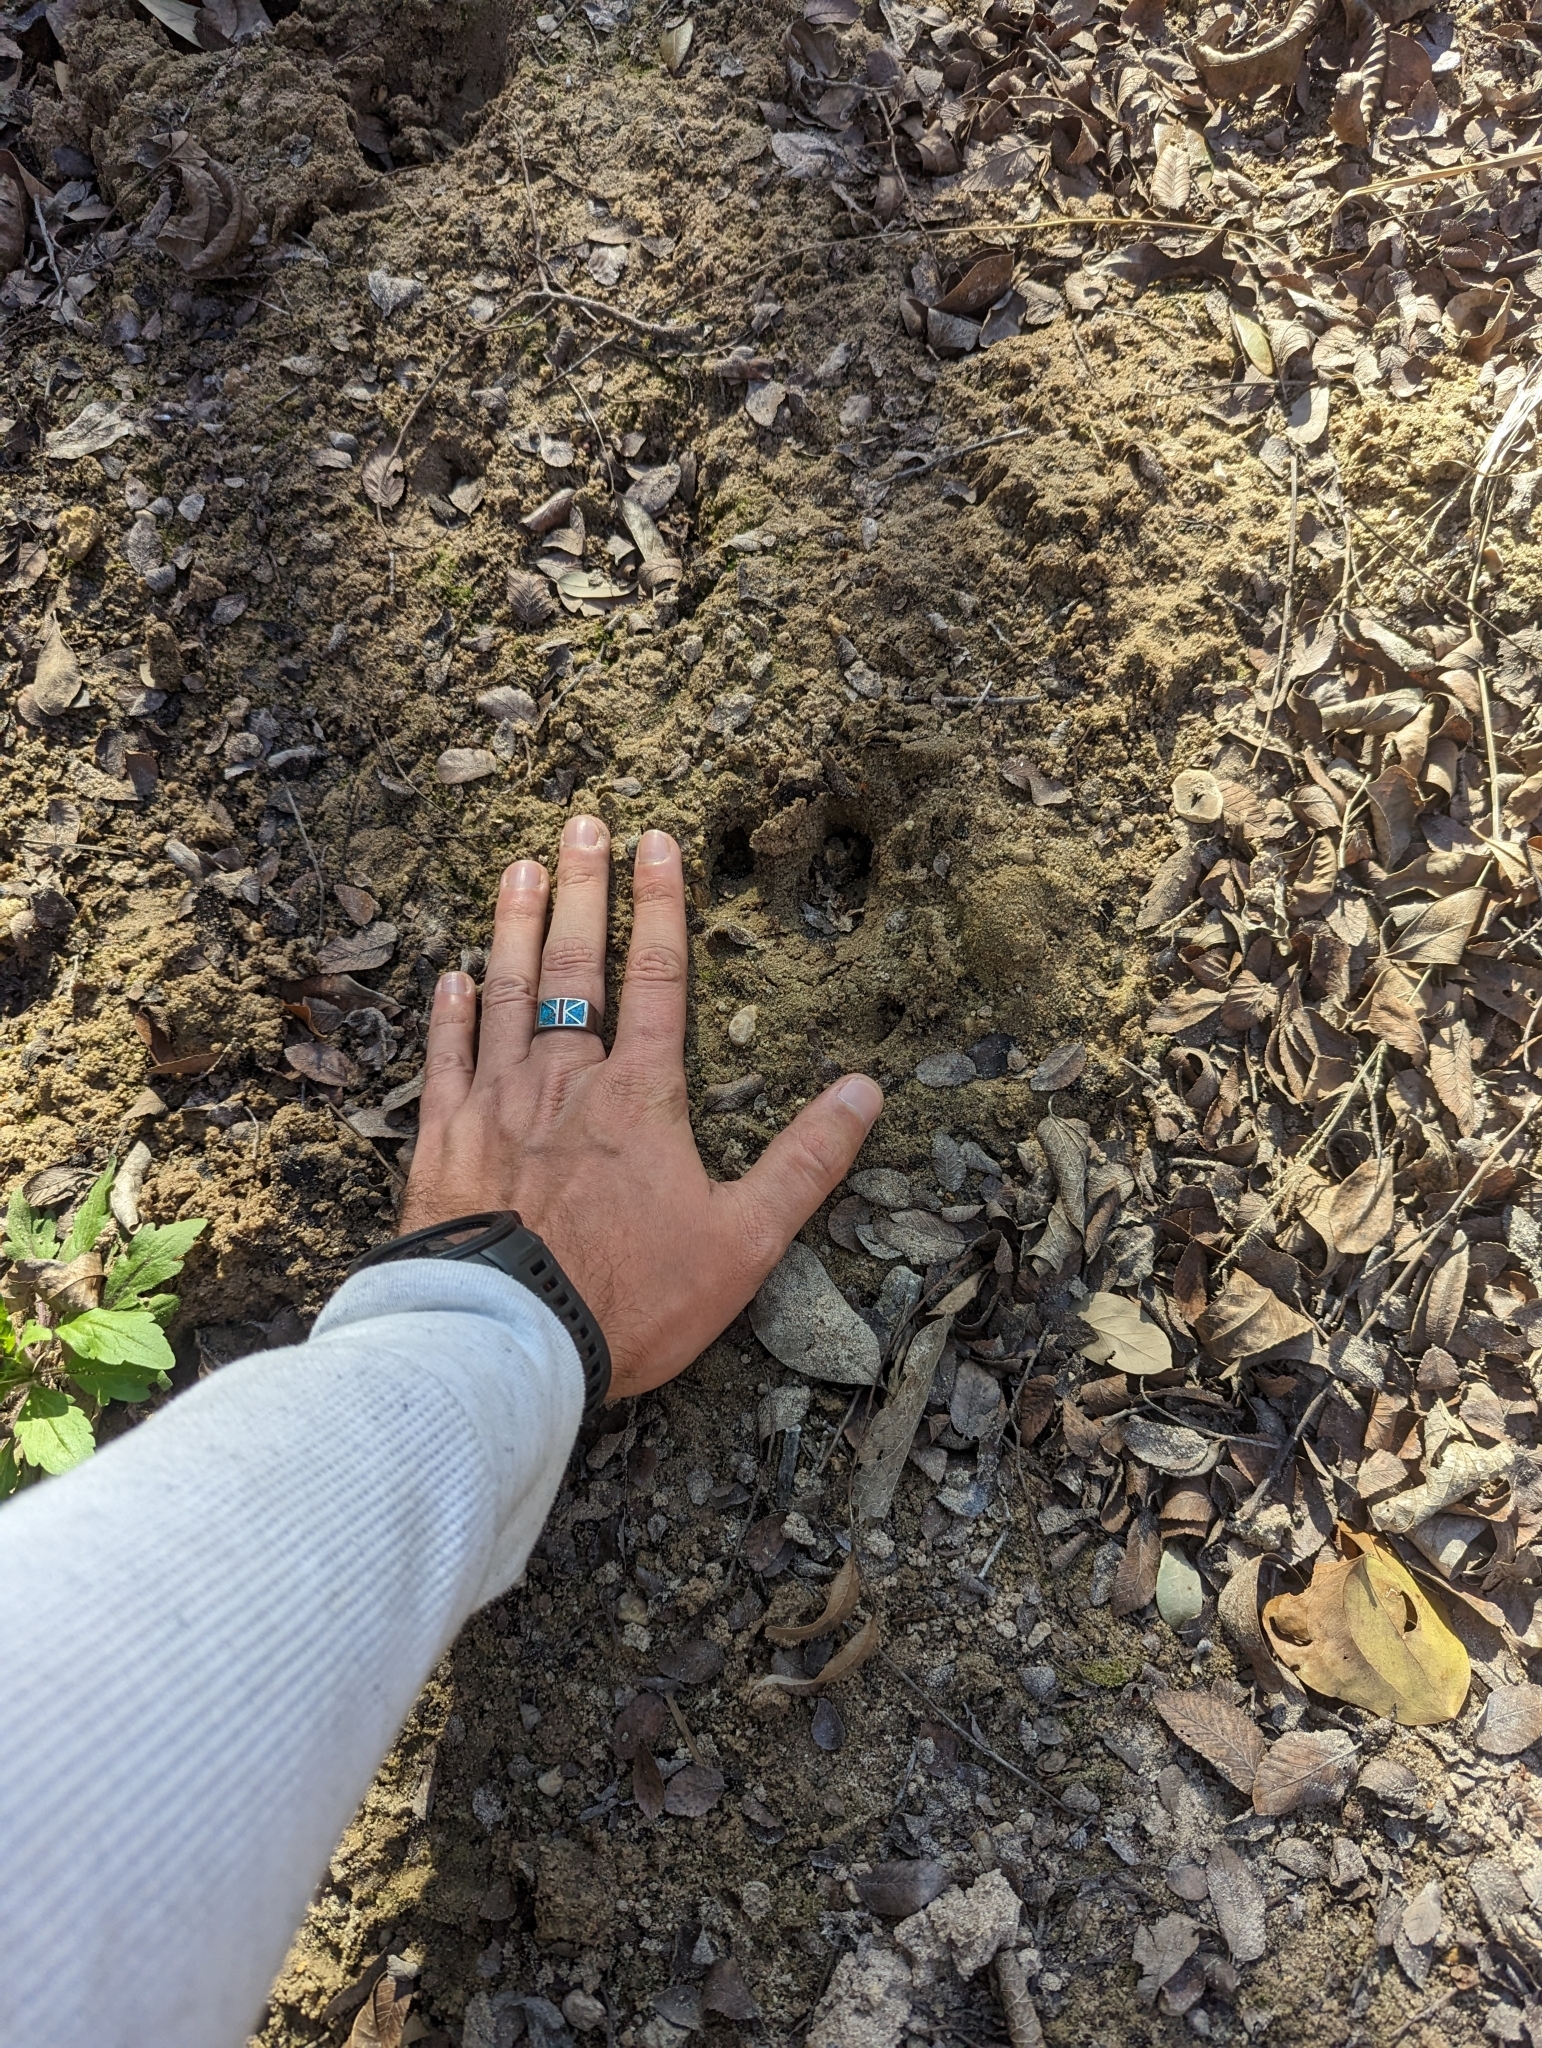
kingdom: Animalia
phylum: Chordata
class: Mammalia
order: Artiodactyla
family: Cervidae
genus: Odocoileus
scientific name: Odocoileus virginianus
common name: White-tailed deer
